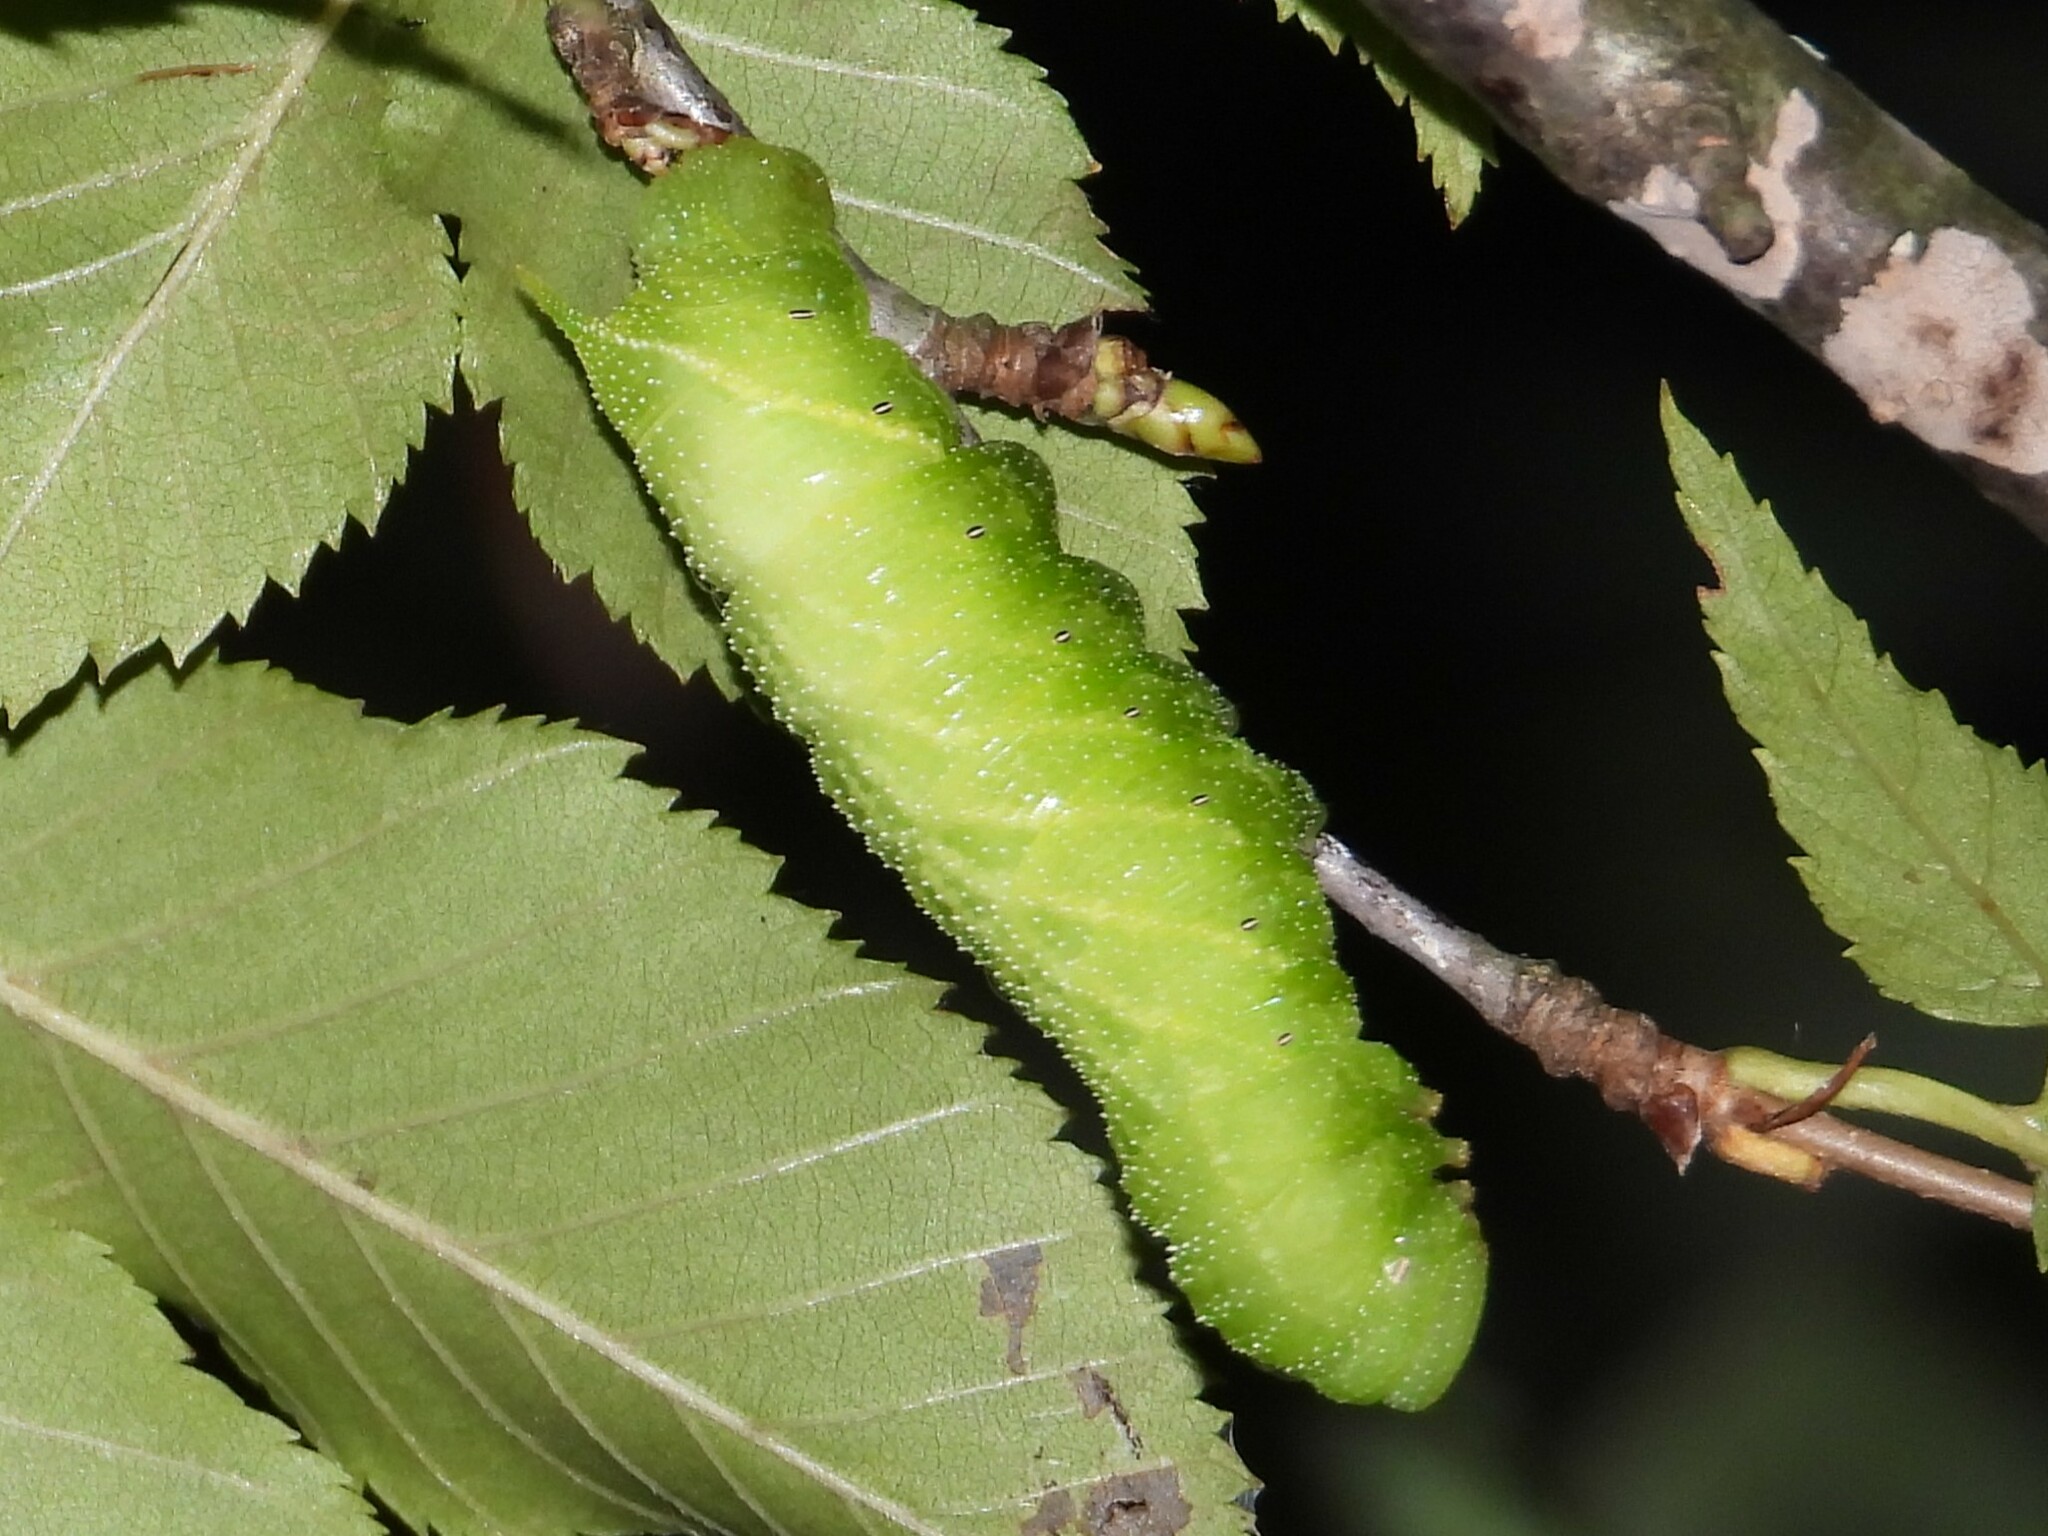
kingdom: Animalia
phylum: Arthropoda
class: Insecta
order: Lepidoptera
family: Sphingidae
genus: Paonias
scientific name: Paonias excaecata
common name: Blind-eyed sphinx
